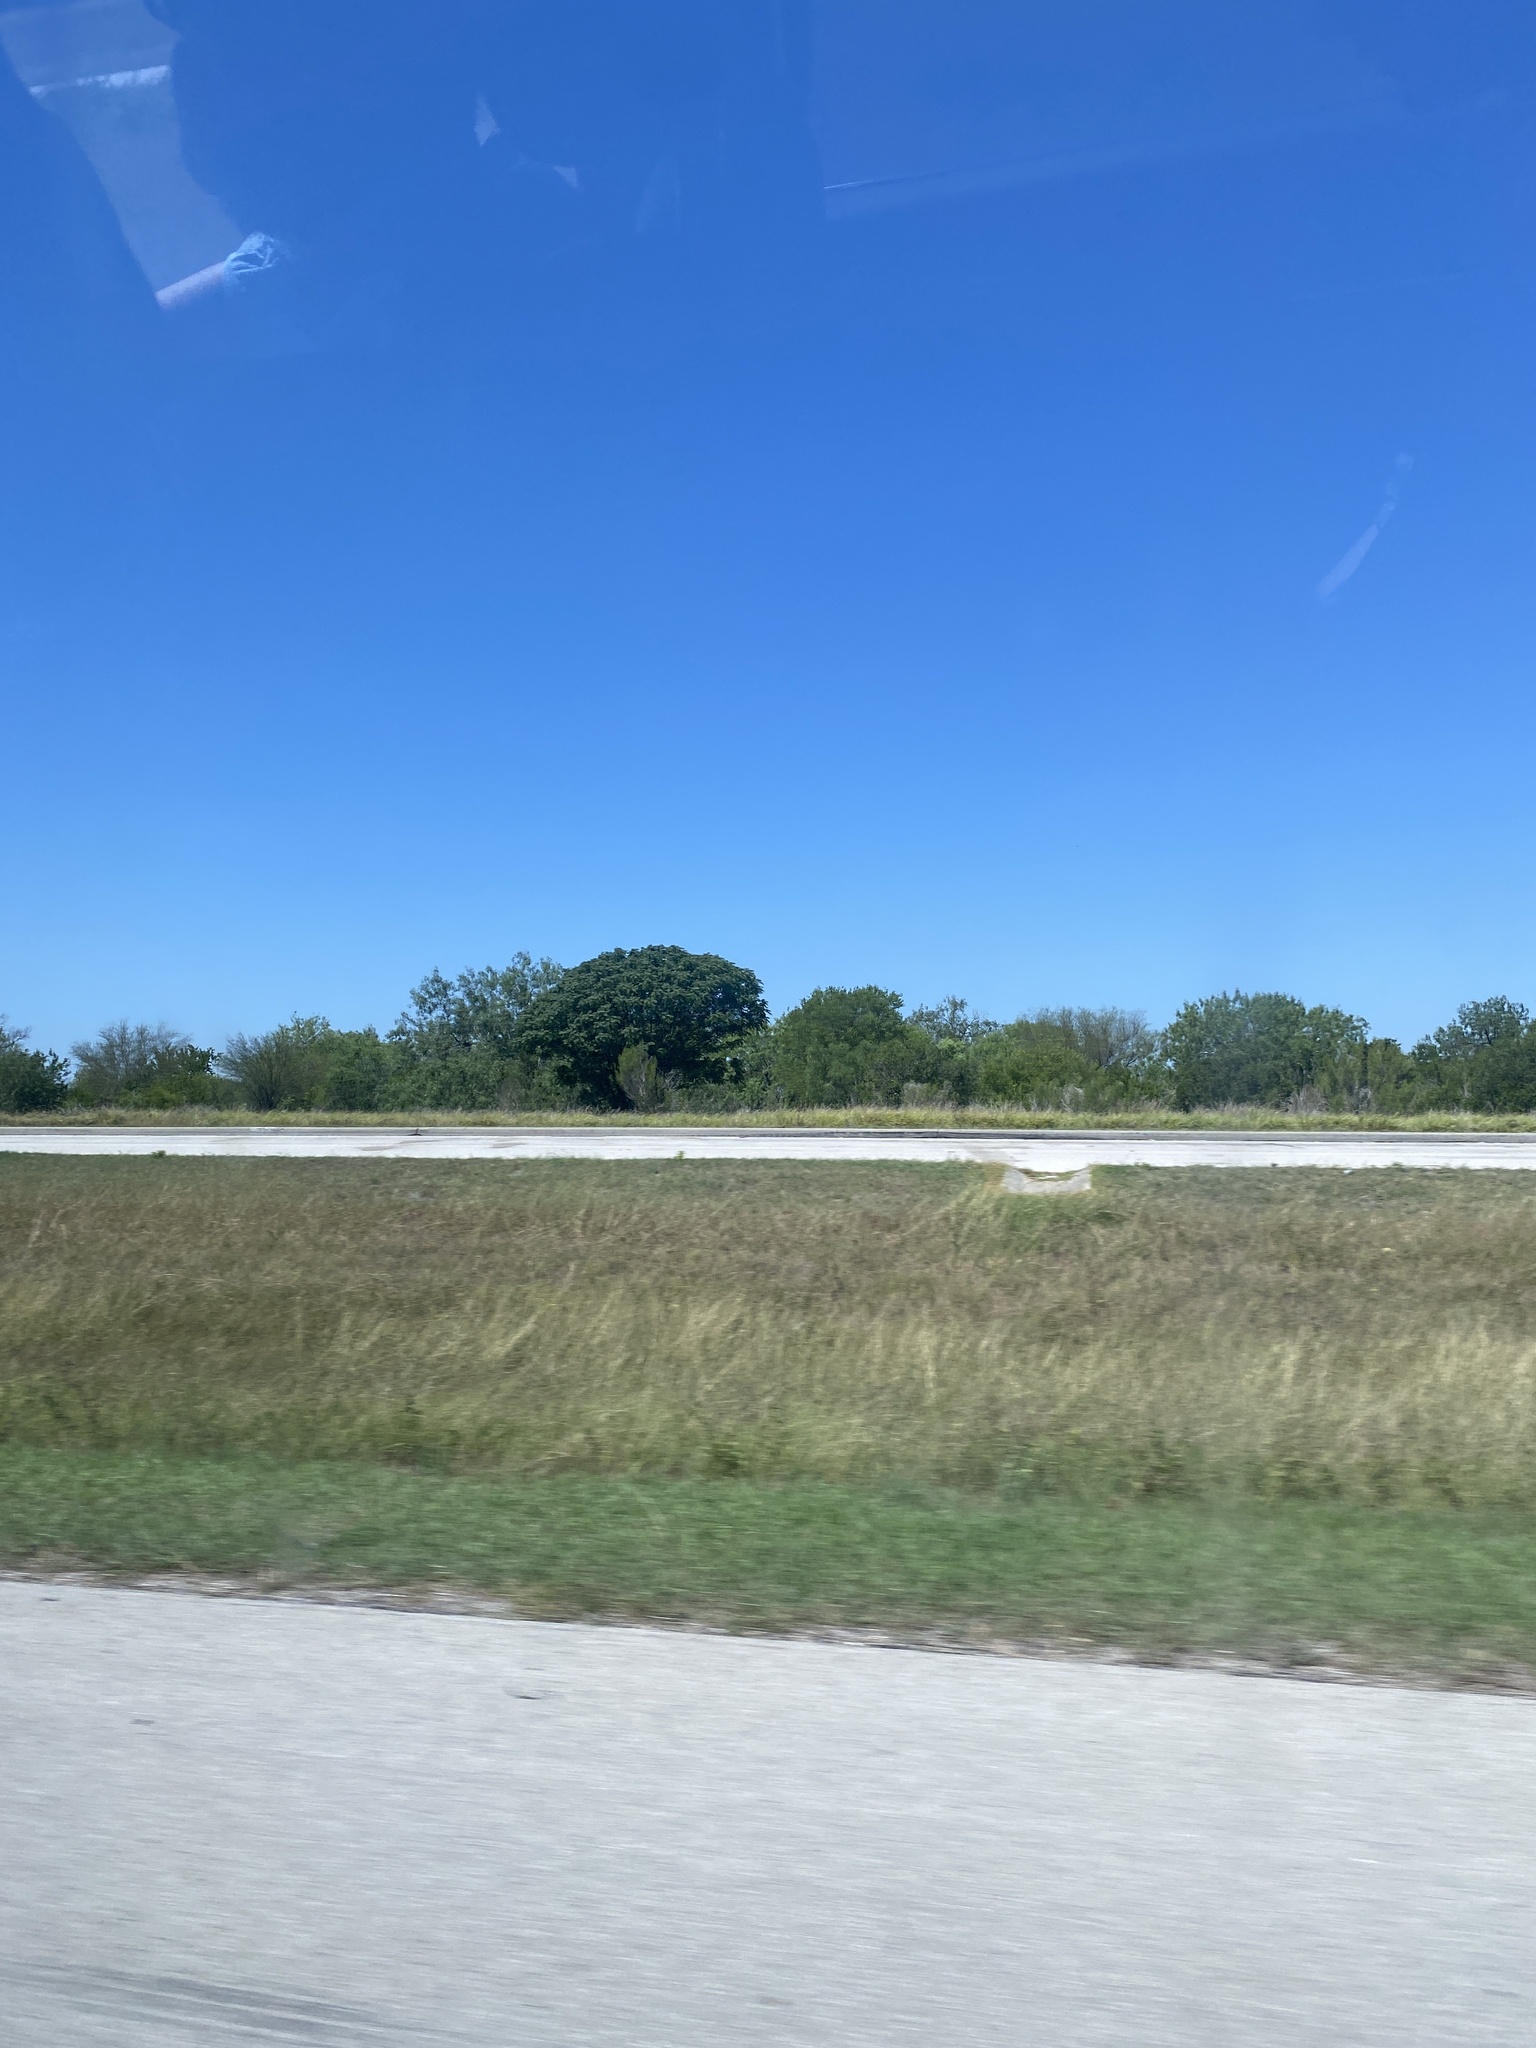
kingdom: Plantae
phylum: Tracheophyta
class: Magnoliopsida
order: Sapindales
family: Meliaceae
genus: Melia
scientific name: Melia azedarach
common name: Chinaberrytree
